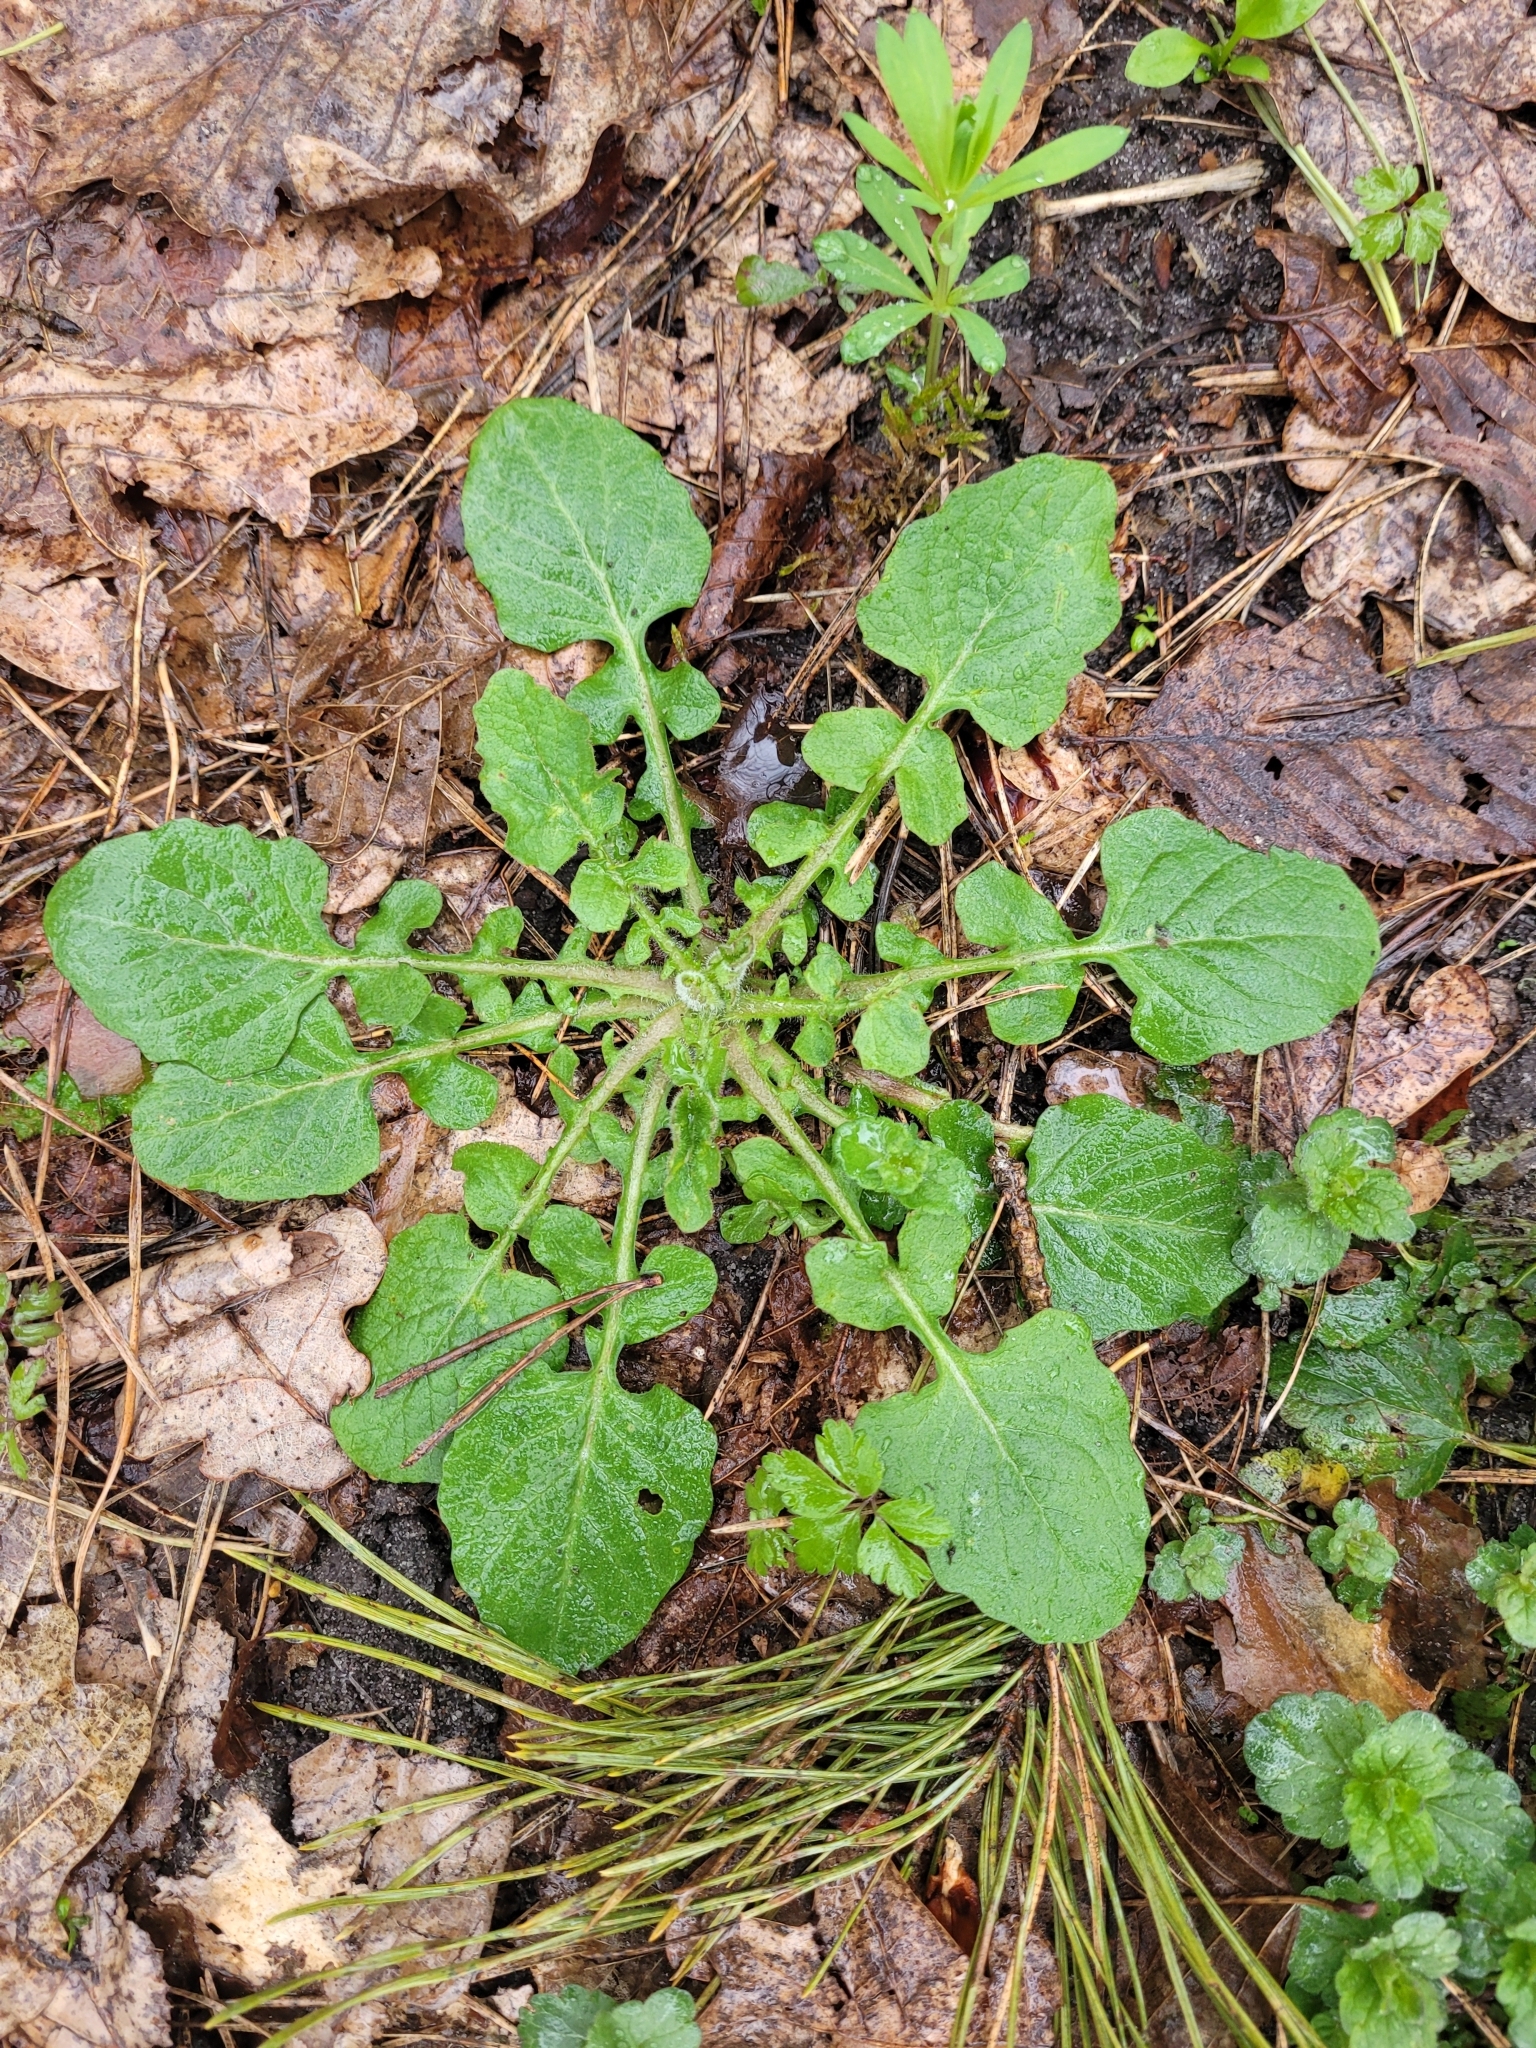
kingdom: Plantae
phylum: Tracheophyta
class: Magnoliopsida
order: Asterales
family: Asteraceae
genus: Lapsana
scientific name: Lapsana communis
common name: Nipplewort
